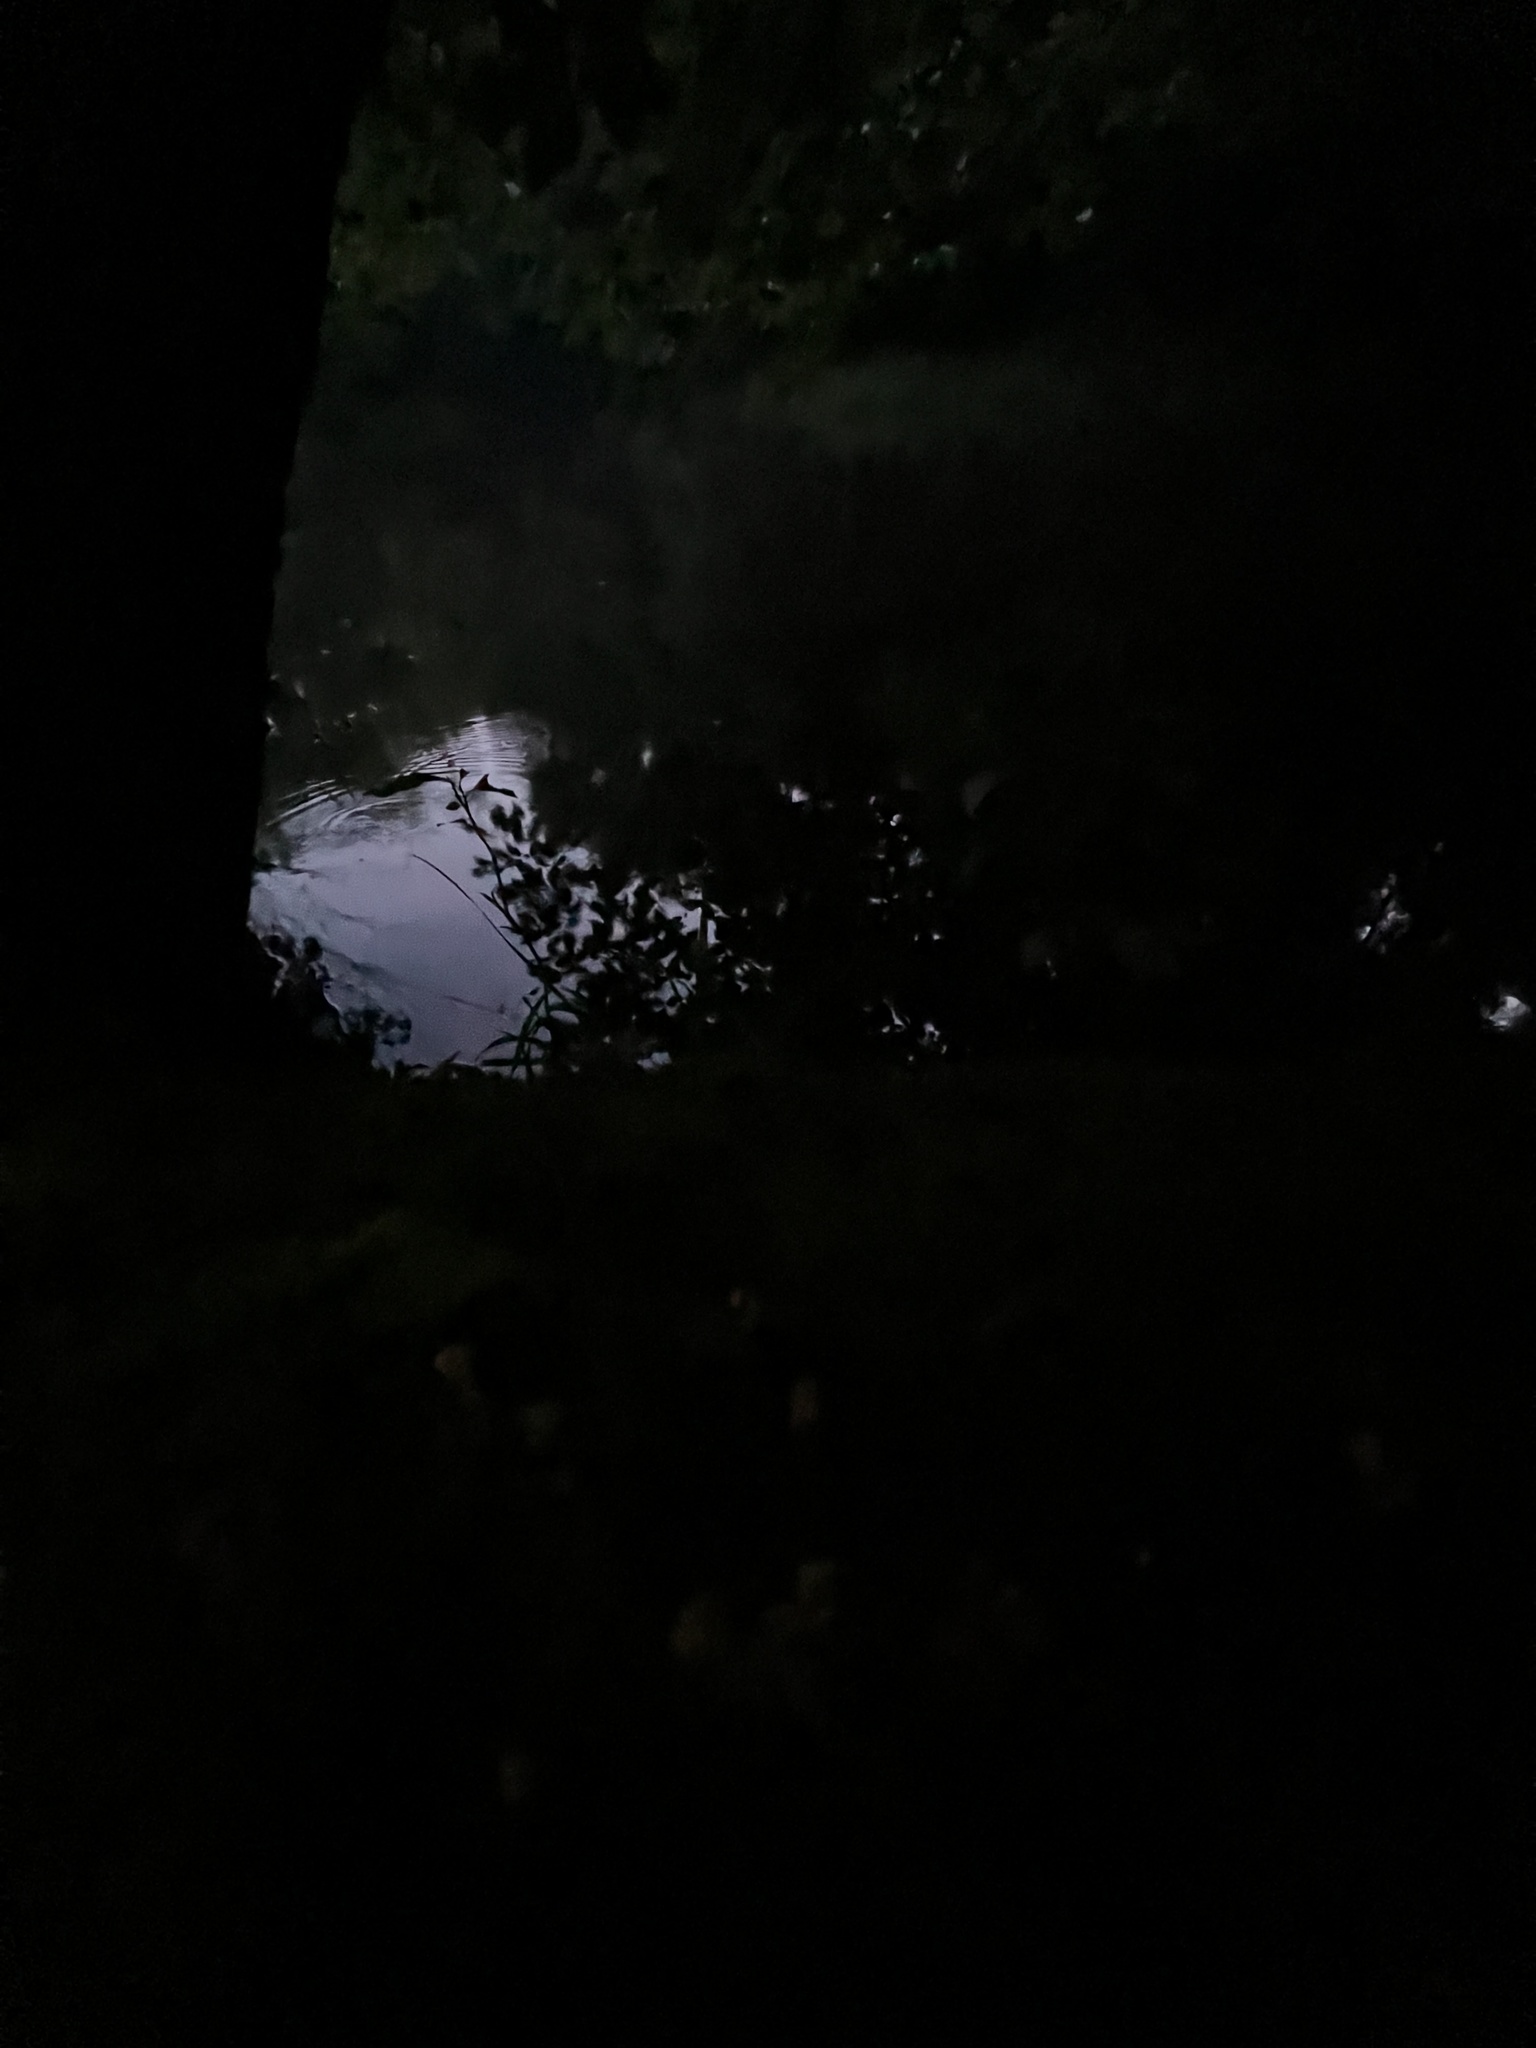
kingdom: Fungi
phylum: Ascomycota
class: Leotiomycetes
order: Leotiales
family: Leotiaceae
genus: Leotia
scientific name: Leotia lubrica
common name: Jellybaby
